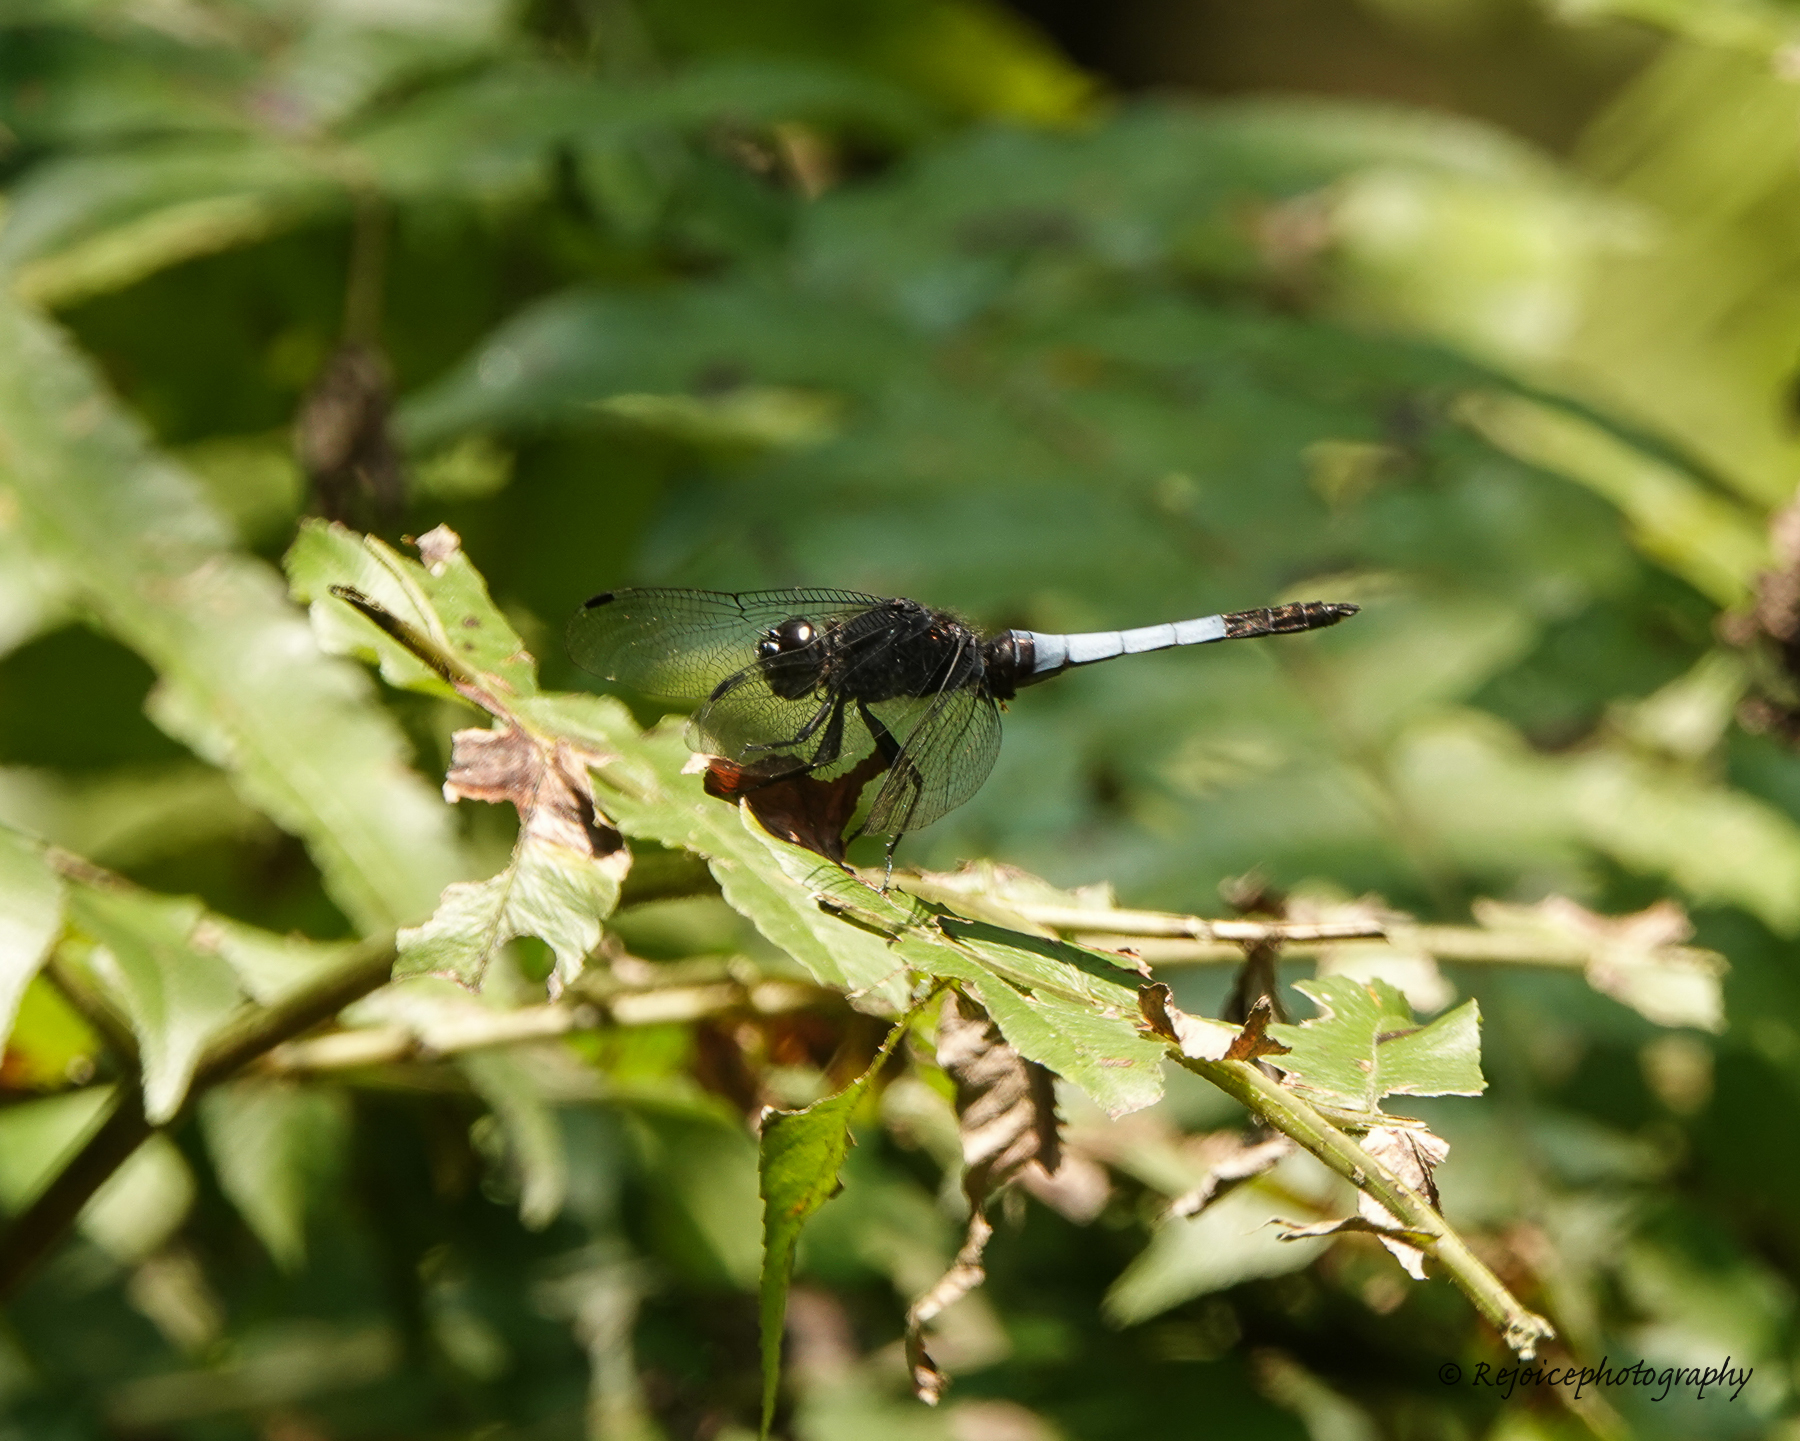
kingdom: Animalia
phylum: Arthropoda
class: Insecta
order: Odonata
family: Libellulidae
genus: Orthetrum
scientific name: Orthetrum triangulare
